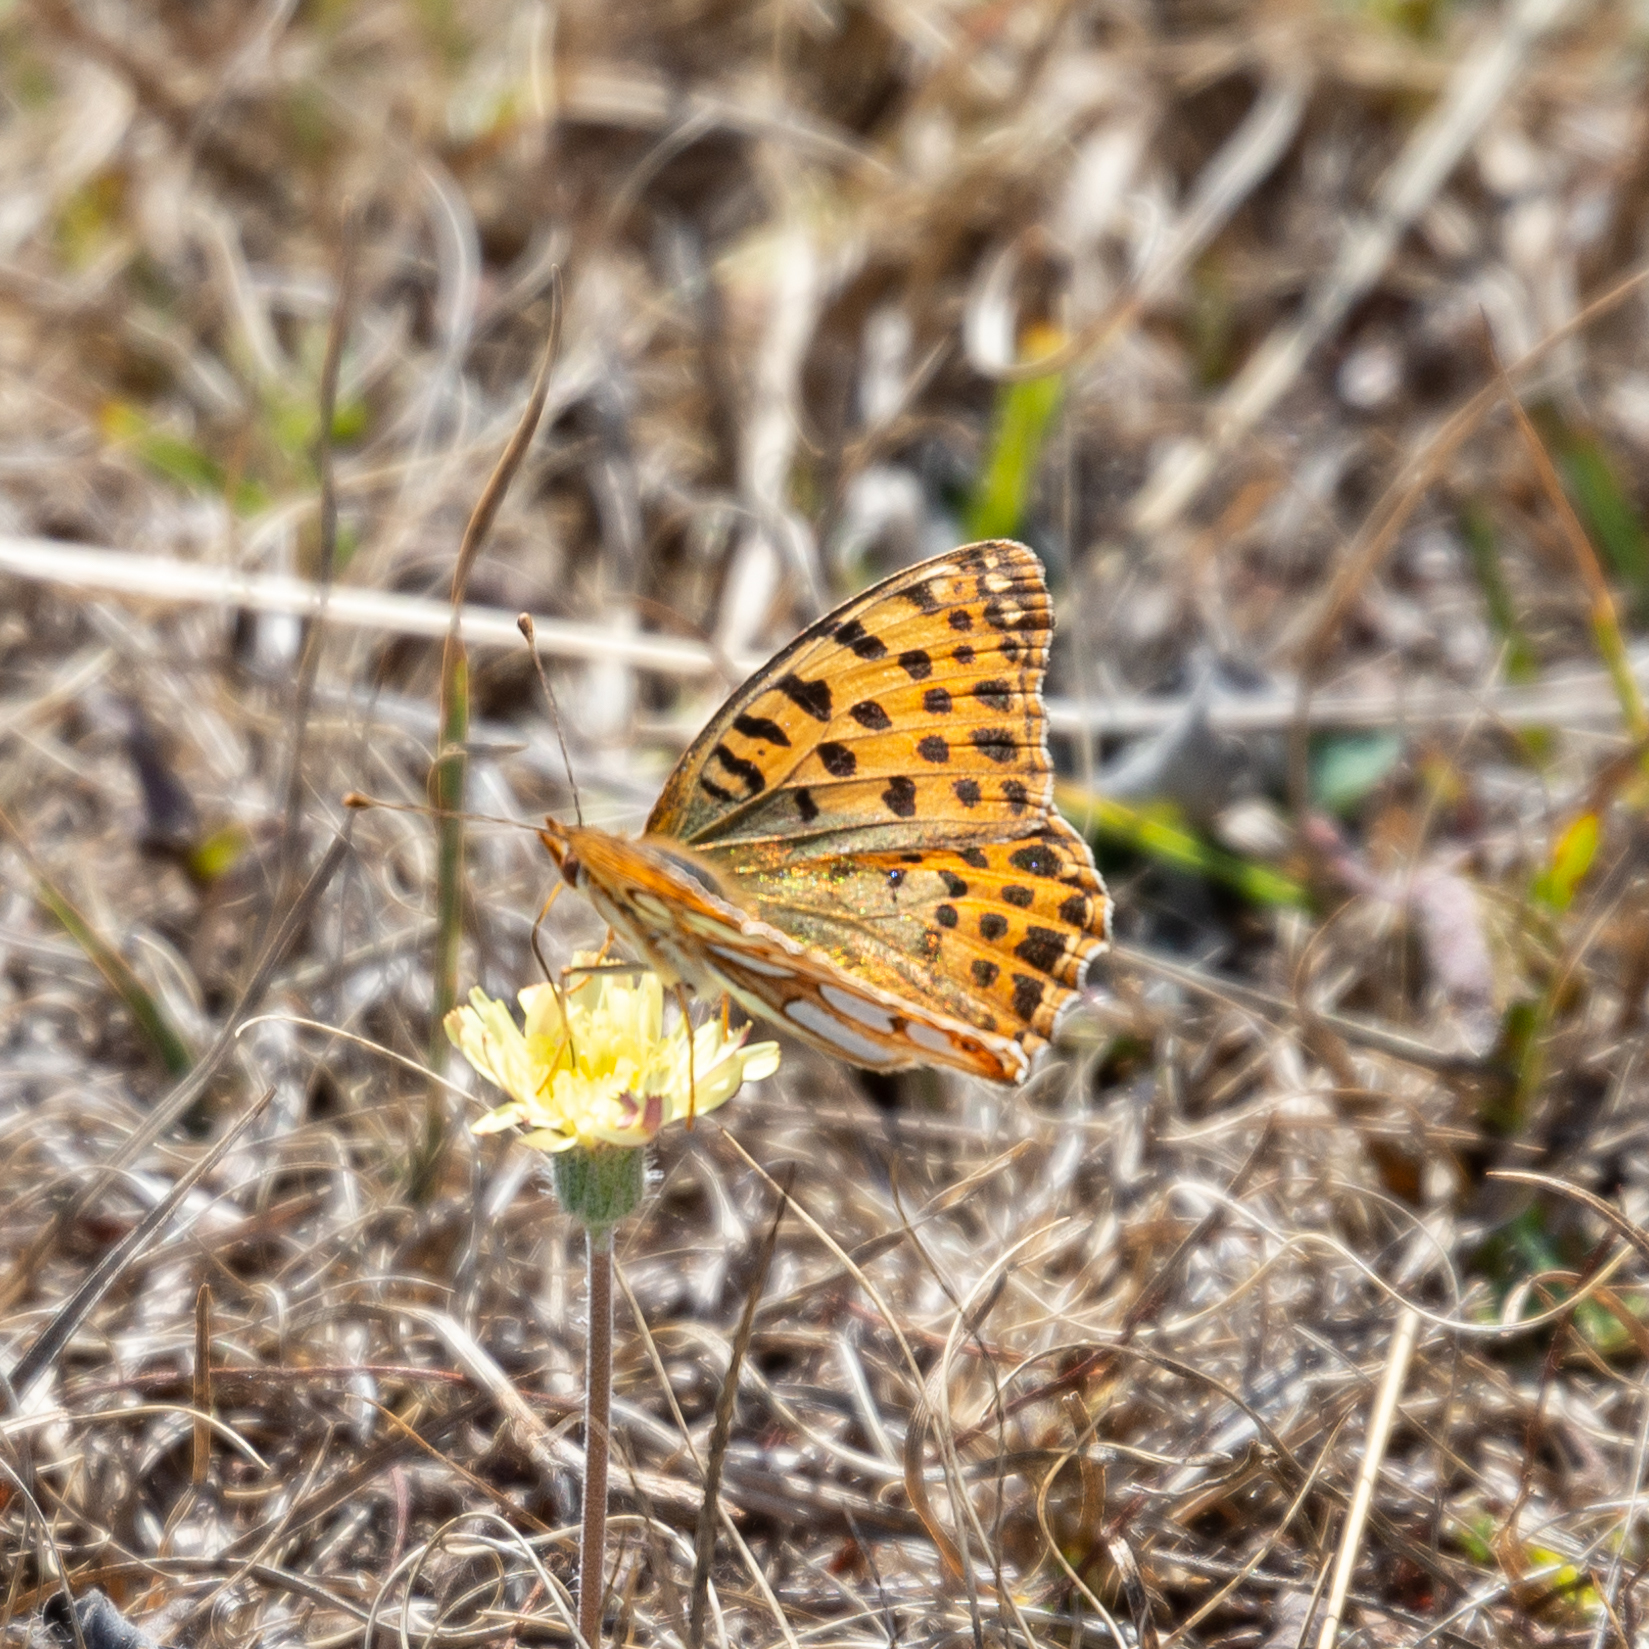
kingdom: Animalia
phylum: Arthropoda
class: Insecta
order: Lepidoptera
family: Nymphalidae
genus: Issoria
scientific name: Issoria lathonia
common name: Queen of spain fritillary
